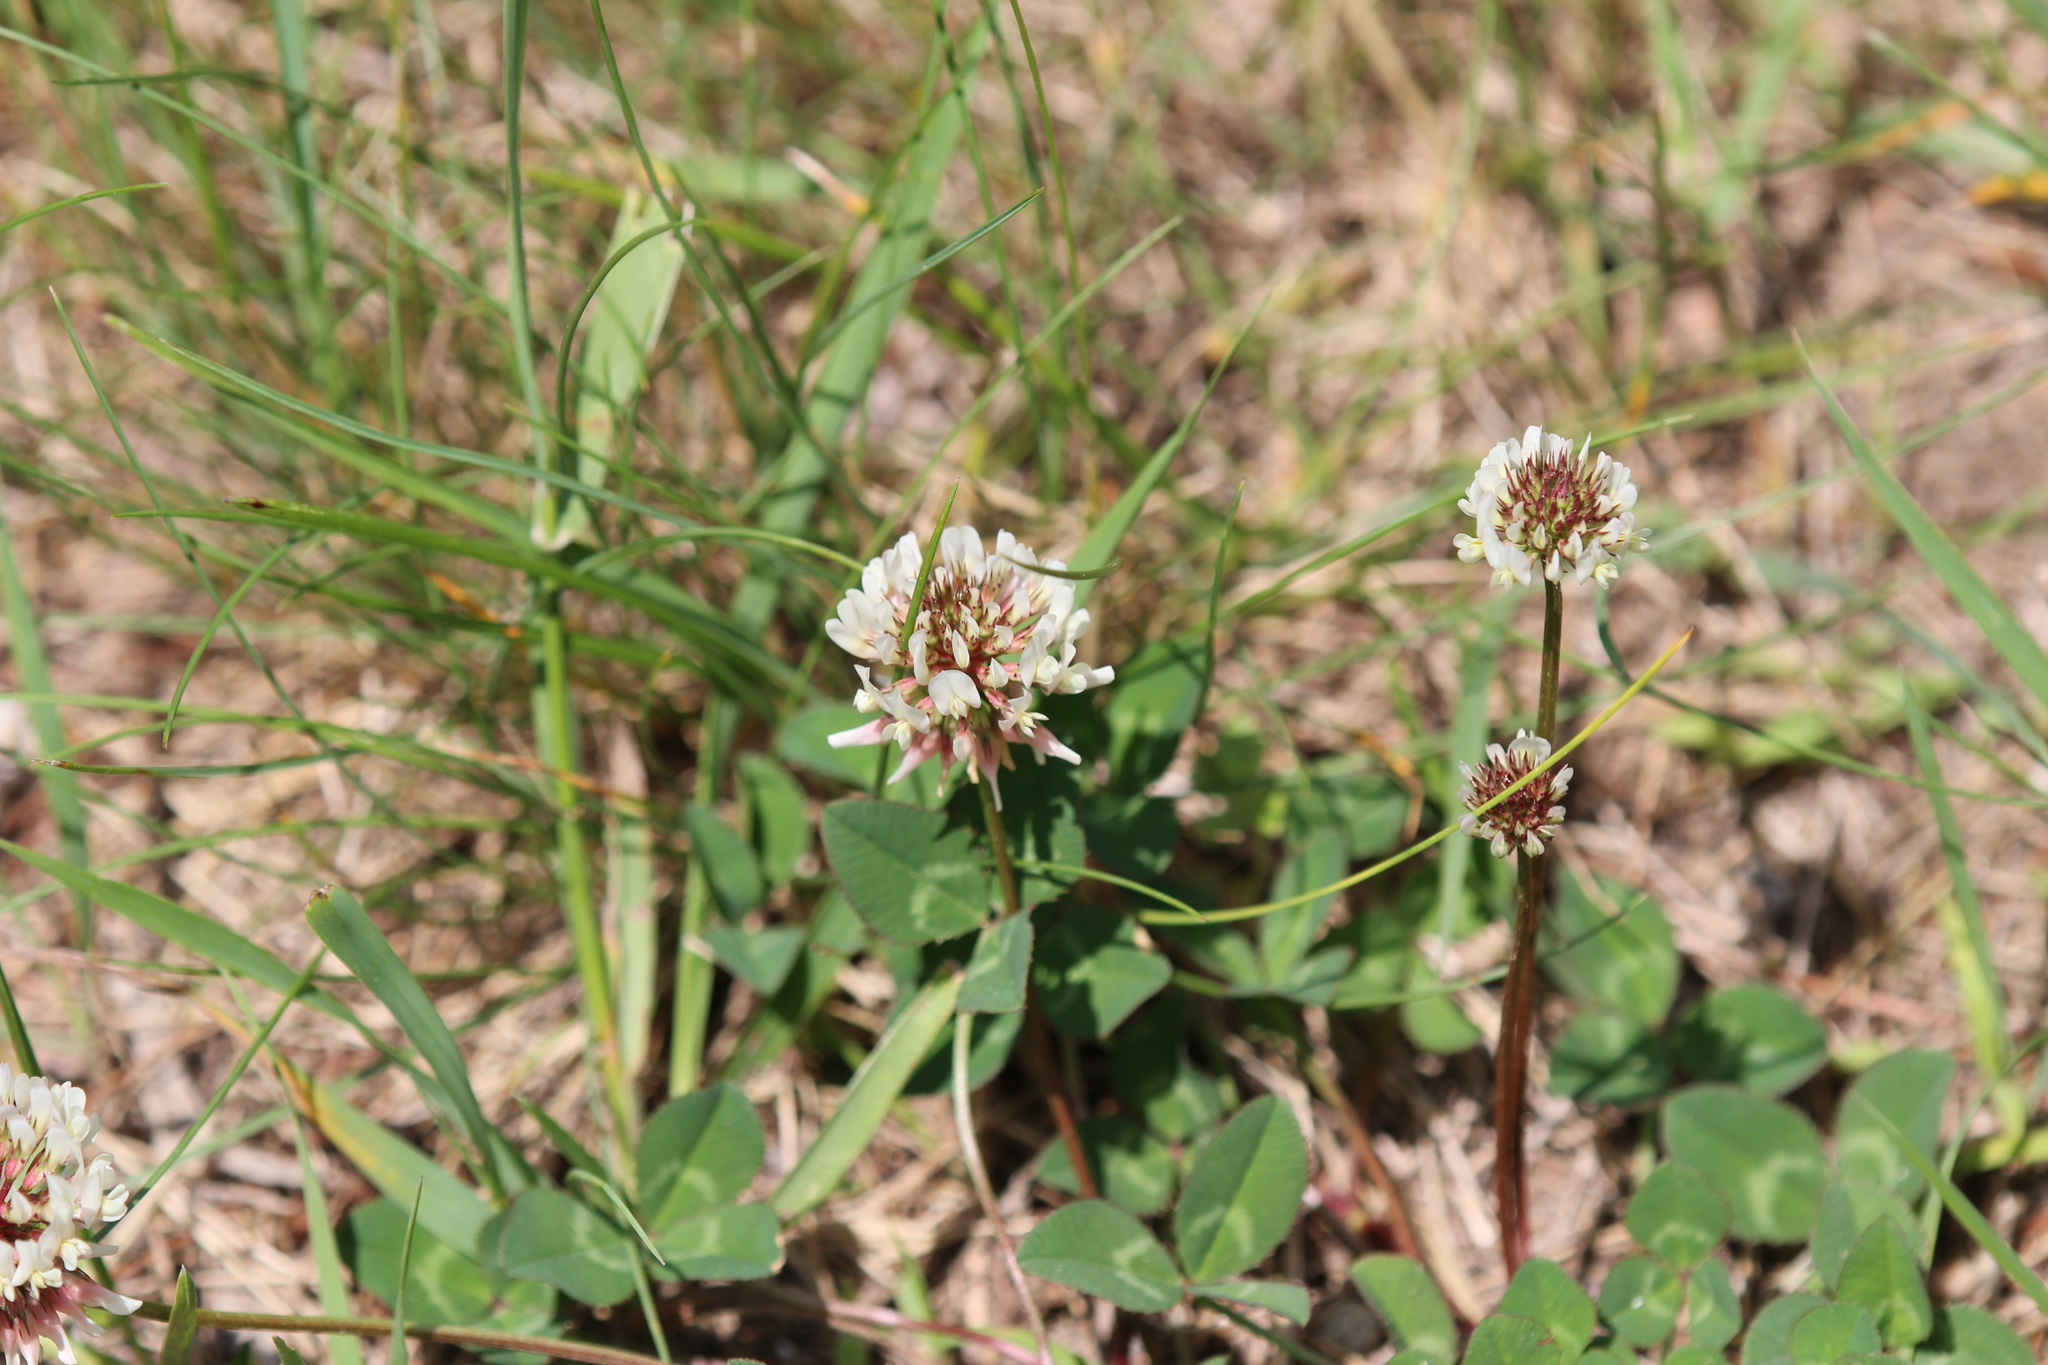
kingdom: Plantae
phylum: Tracheophyta
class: Magnoliopsida
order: Fabales
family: Fabaceae
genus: Trifolium
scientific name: Trifolium repens
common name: White clover
